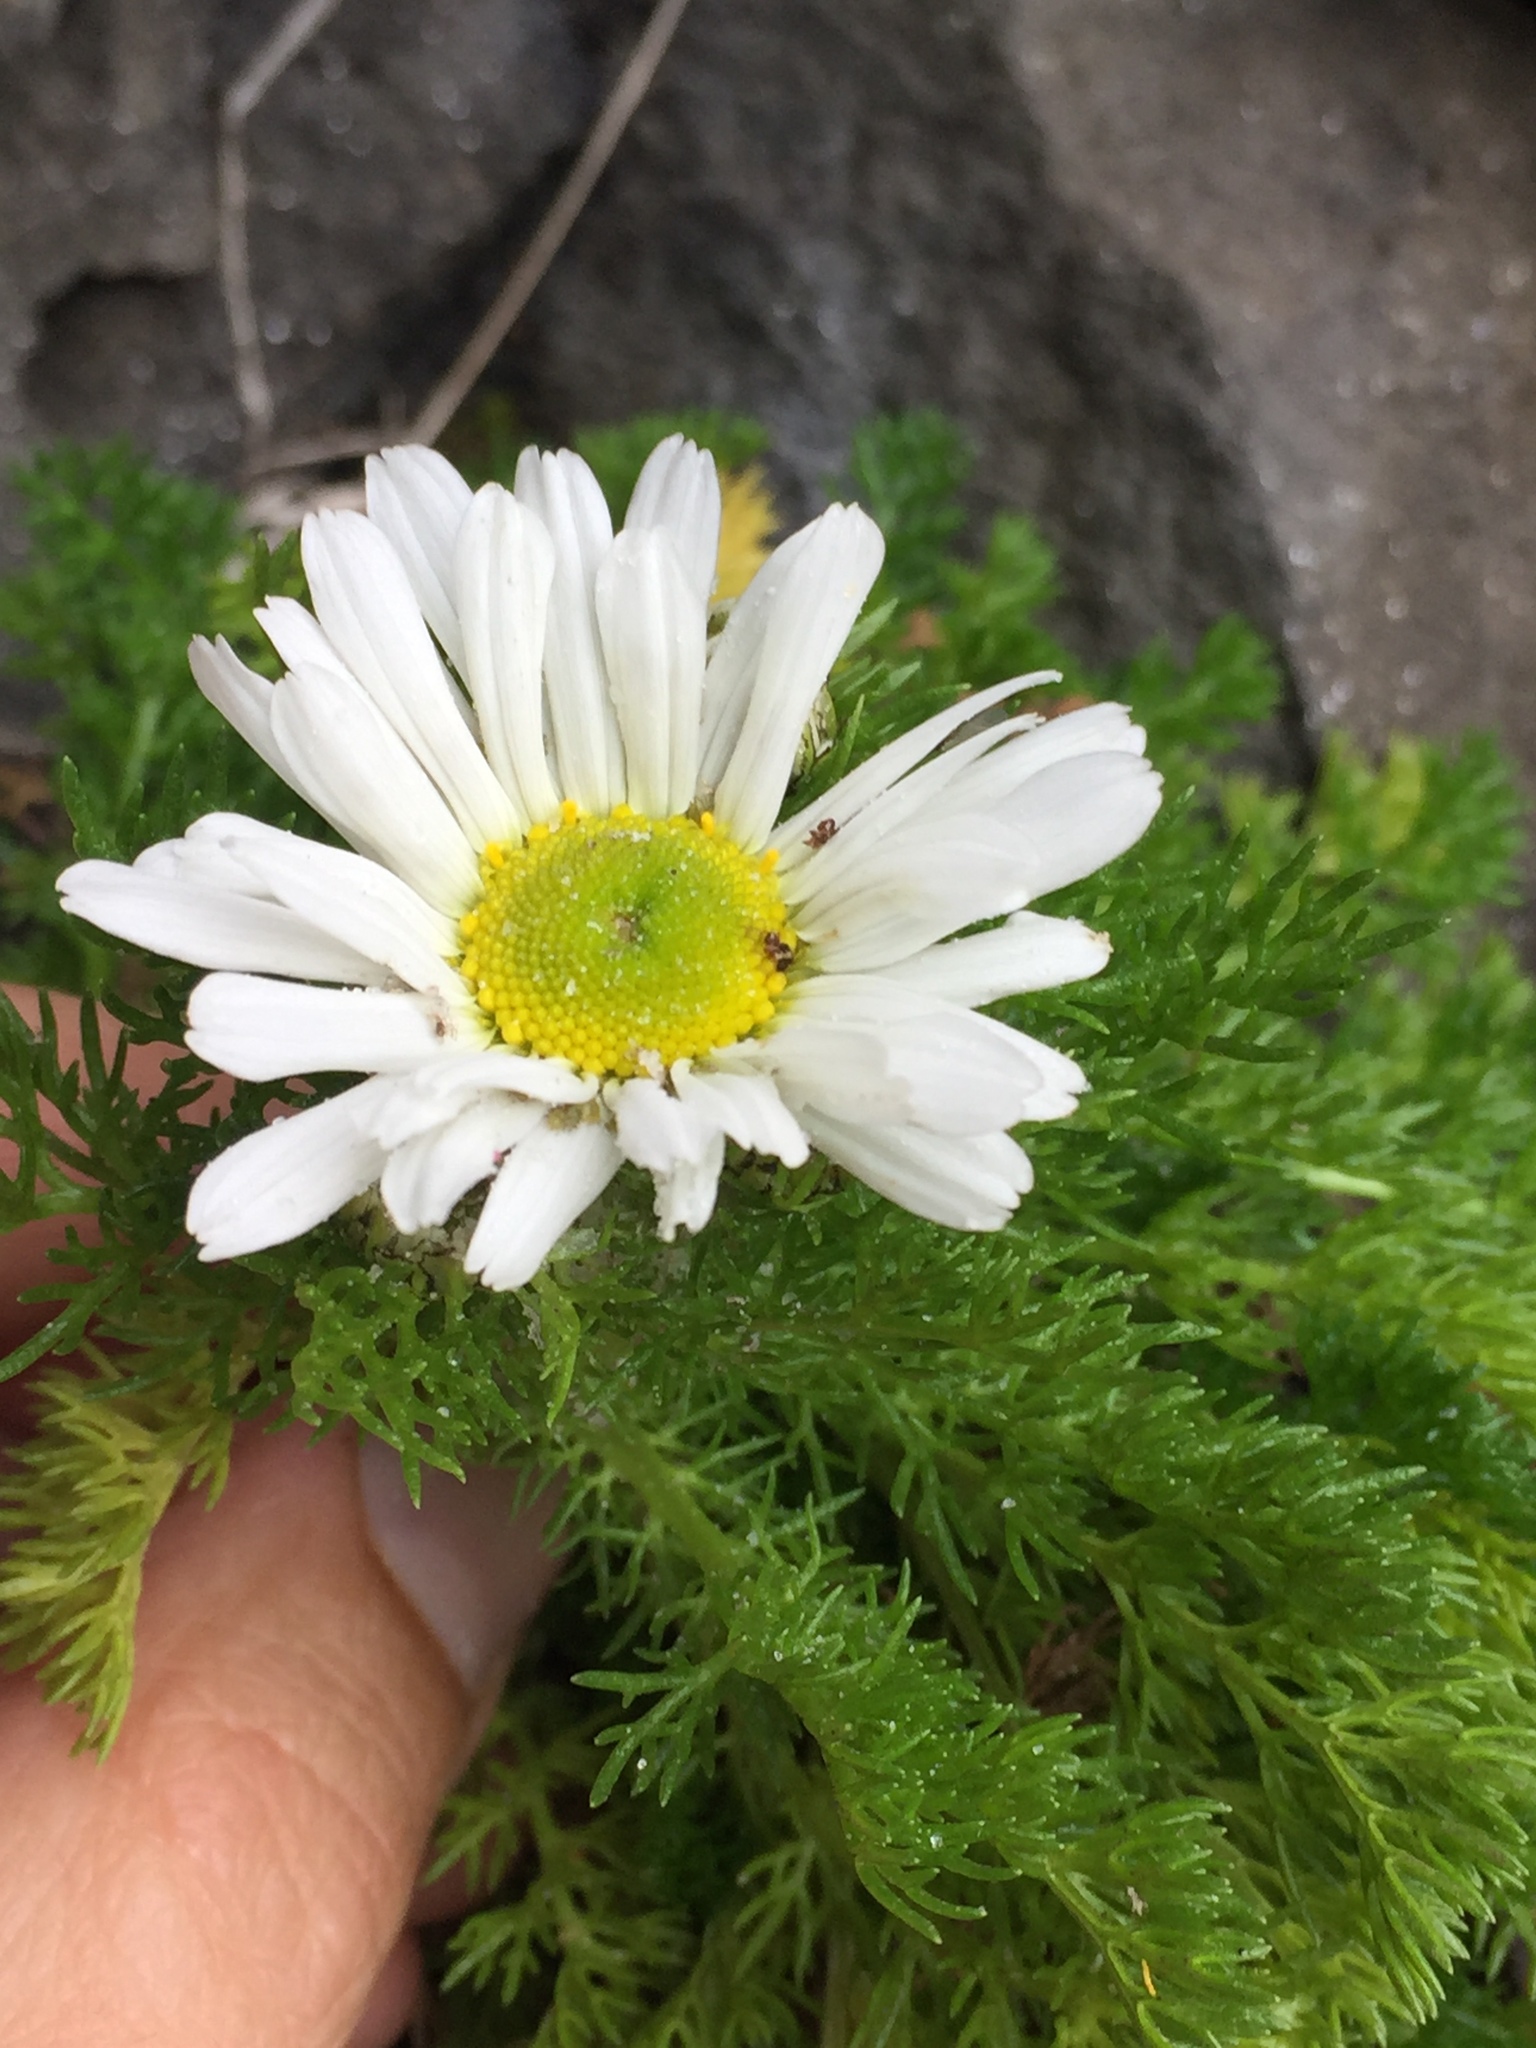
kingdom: Plantae
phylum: Tracheophyta
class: Magnoliopsida
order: Asterales
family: Asteraceae
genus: Tripleurospermum
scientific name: Tripleurospermum maritimum
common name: Sea mayweed
